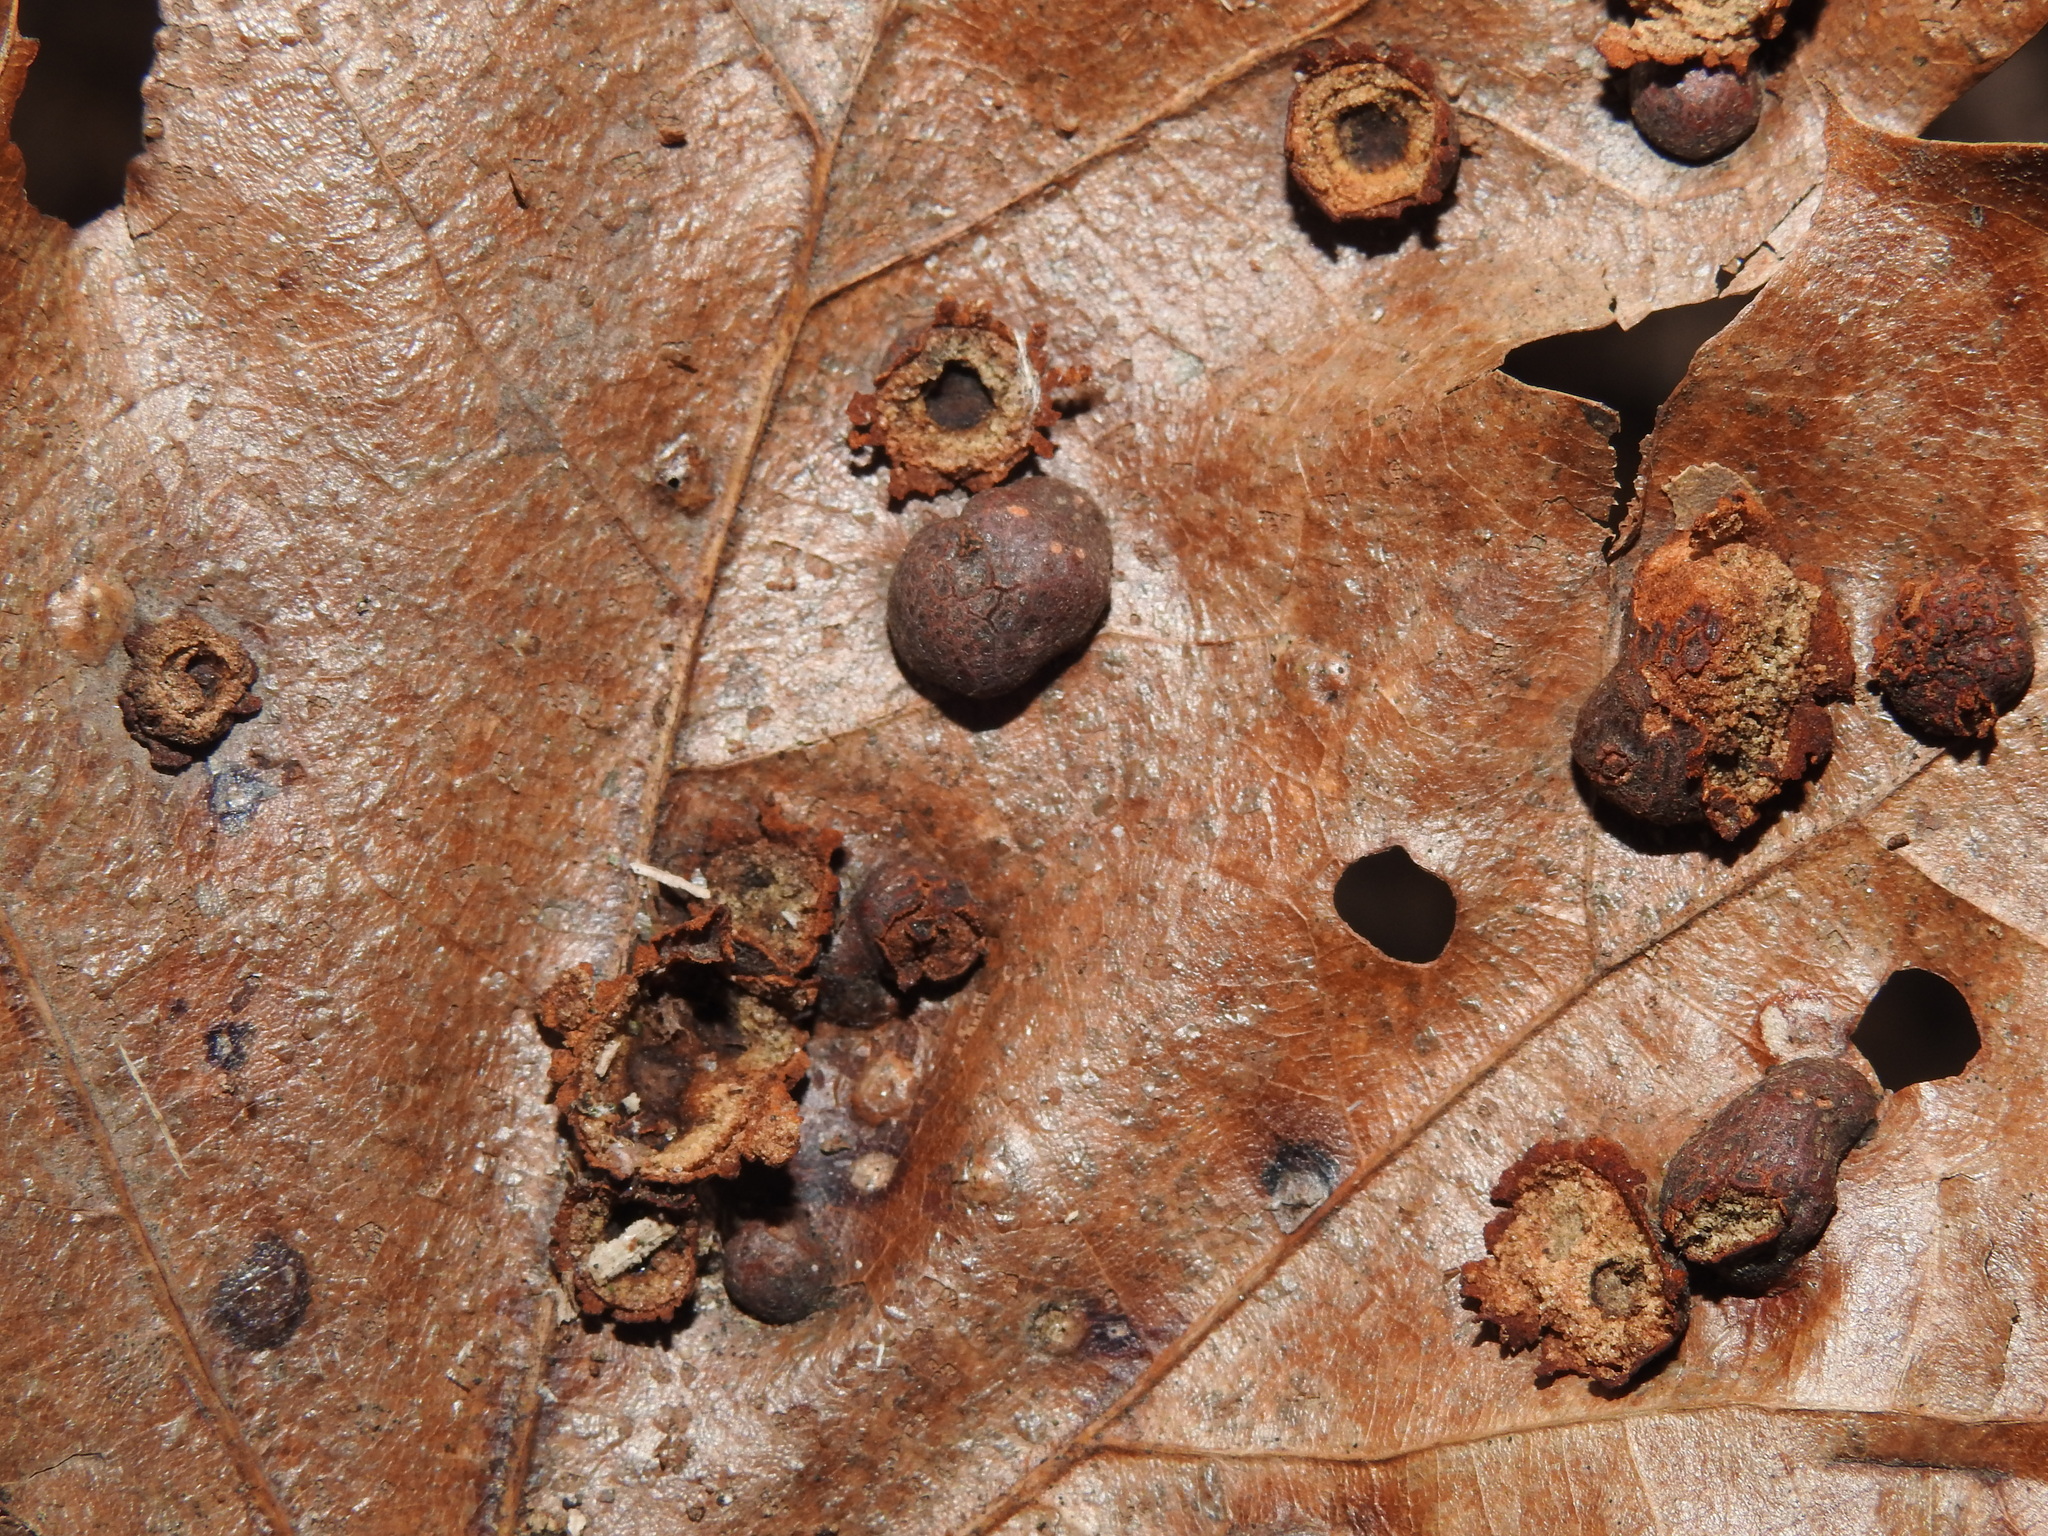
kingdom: Animalia
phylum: Arthropoda
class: Insecta
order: Diptera
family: Cecidomyiidae
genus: Polystepha
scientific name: Polystepha pilulae
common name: Oak leaf gall midge
